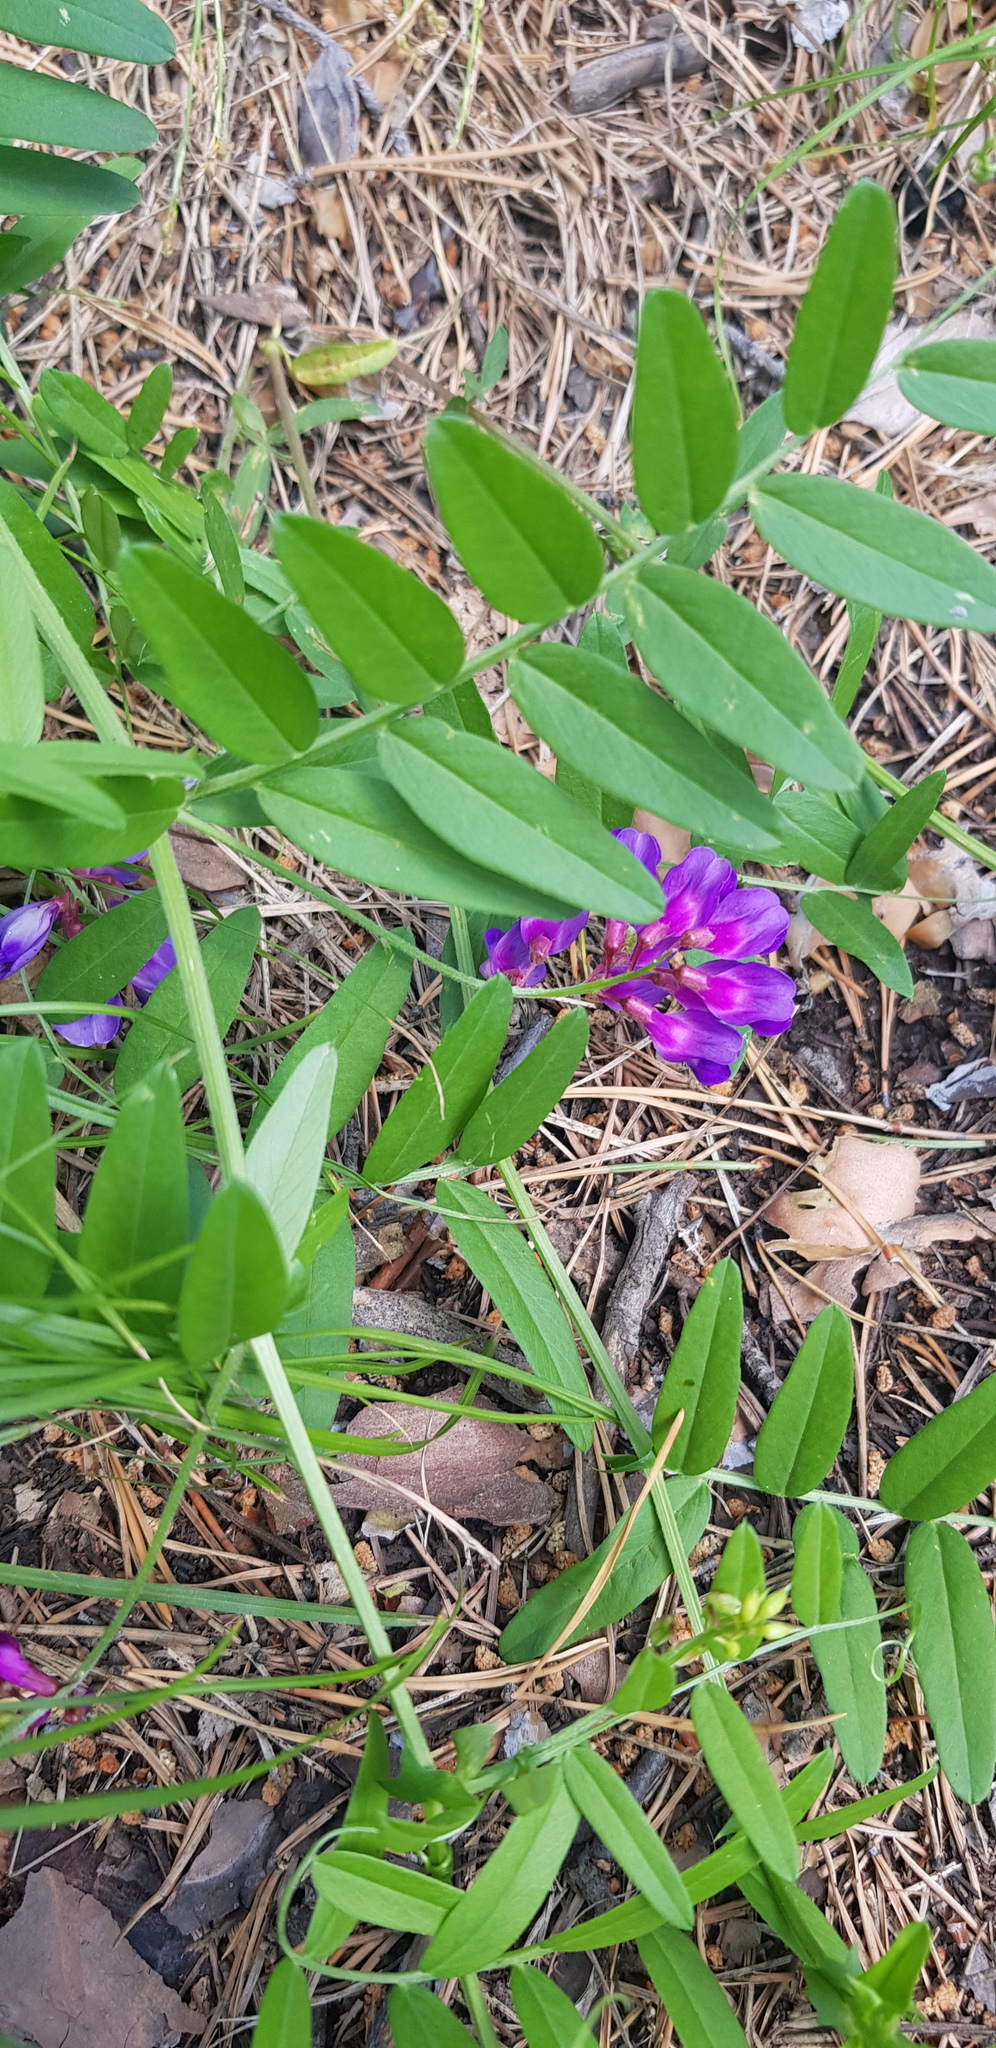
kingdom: Plantae
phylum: Tracheophyta
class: Magnoliopsida
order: Fabales
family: Fabaceae
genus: Vicia
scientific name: Vicia amoena
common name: Cheder ebs
